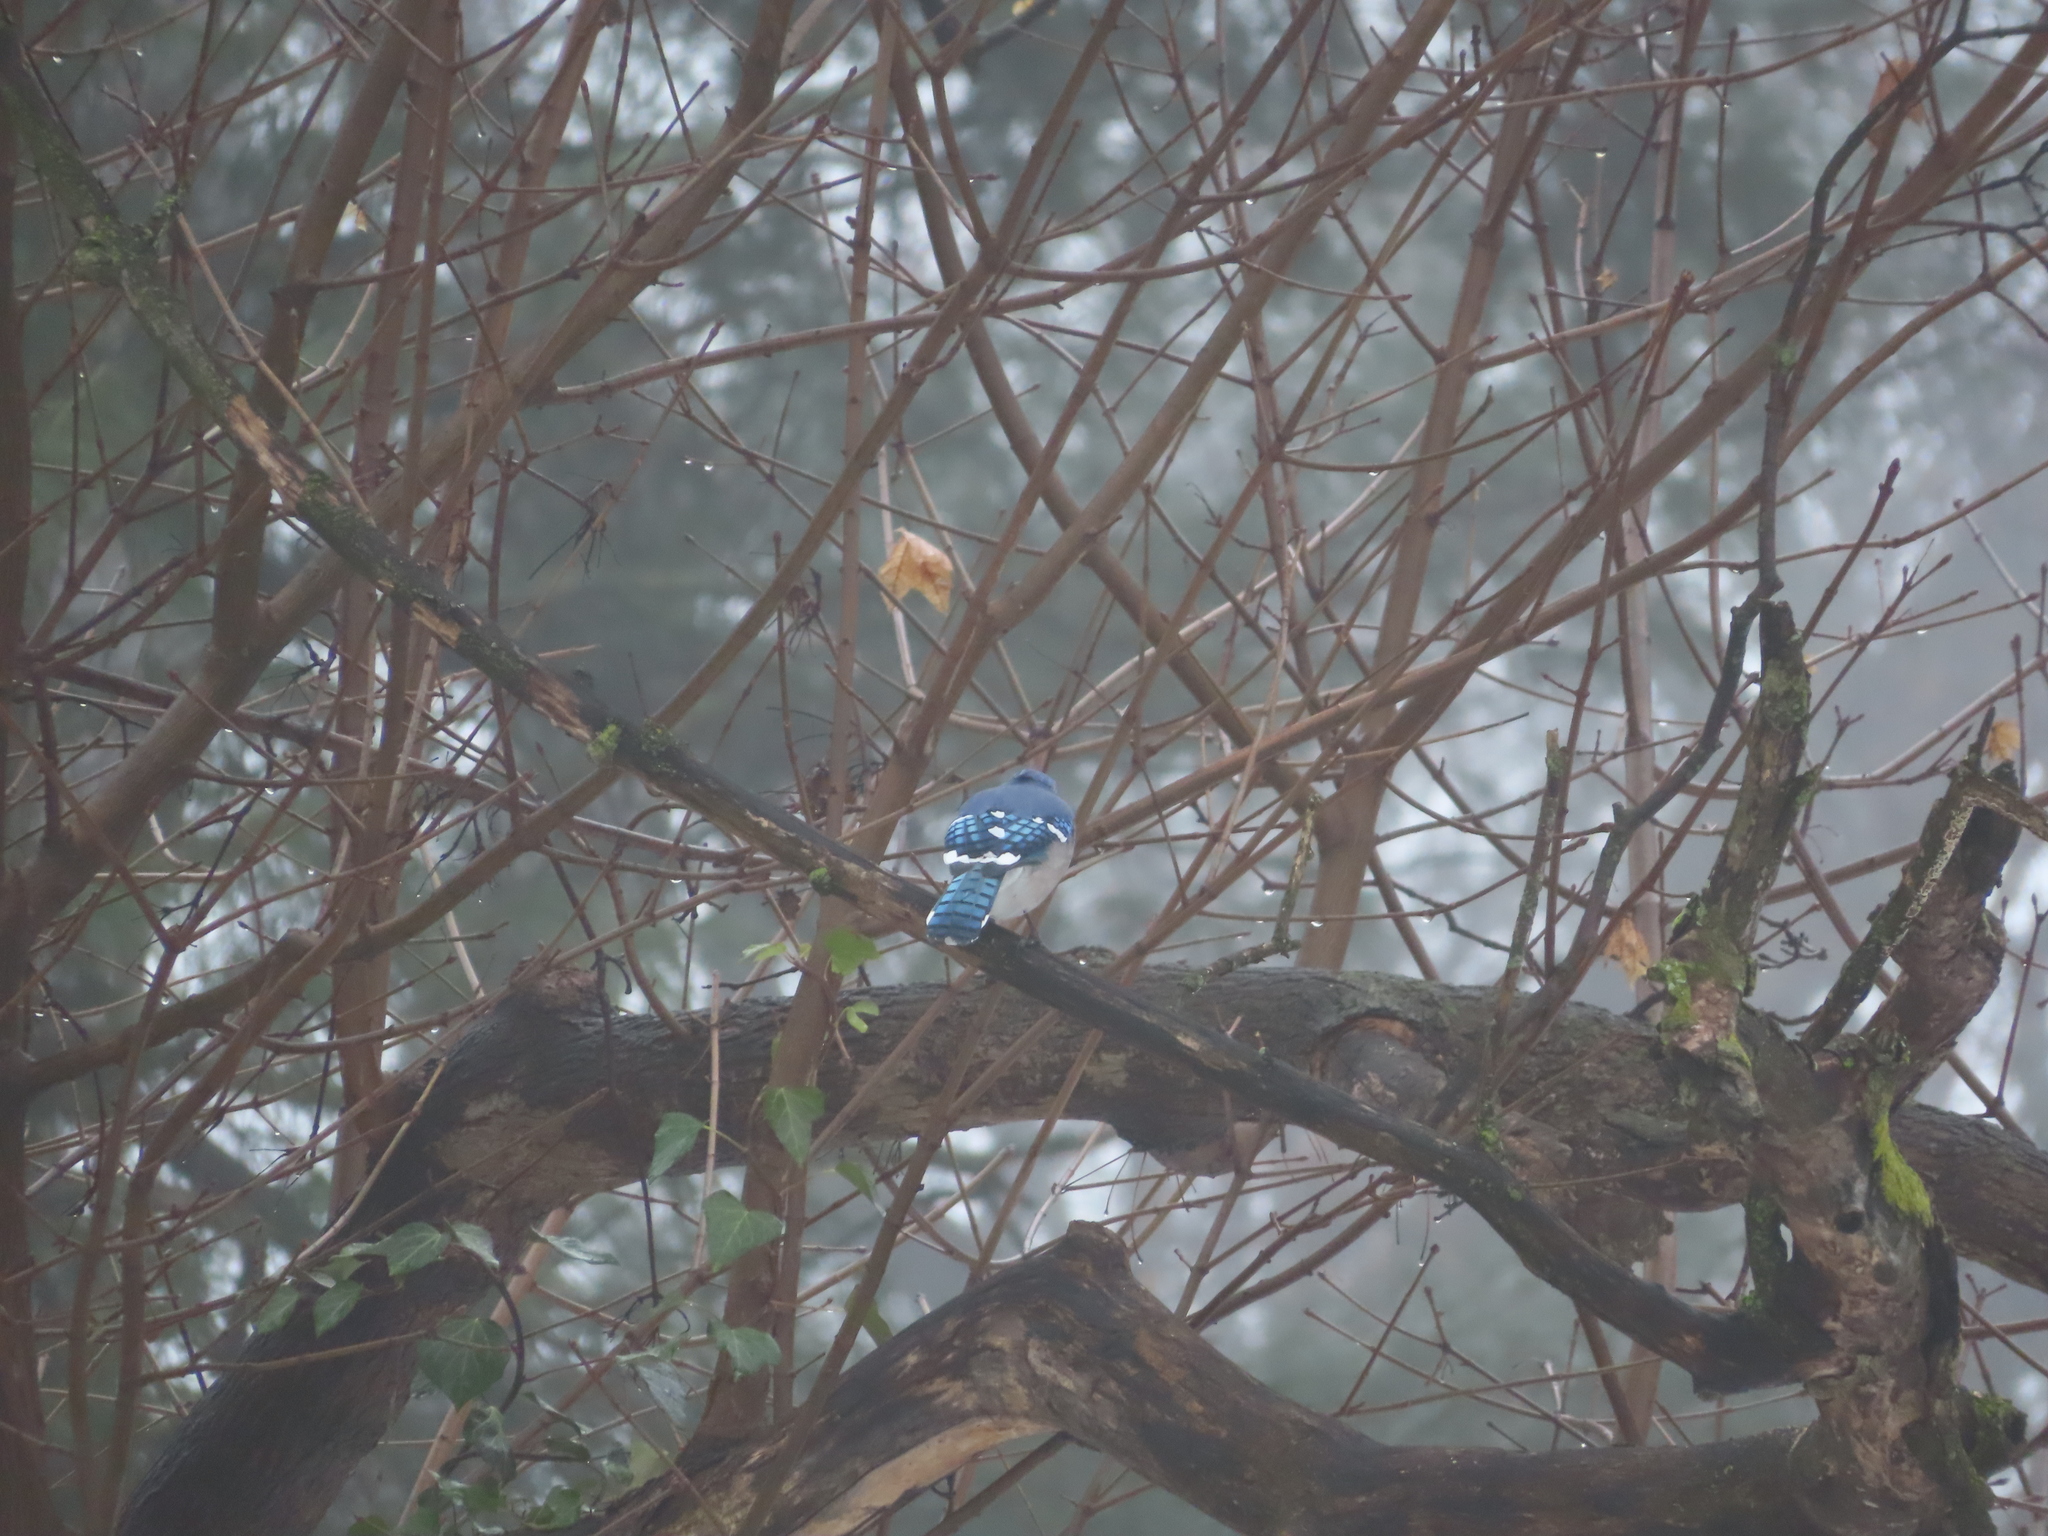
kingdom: Animalia
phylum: Chordata
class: Aves
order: Passeriformes
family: Corvidae
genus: Cyanocitta
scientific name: Cyanocitta cristata
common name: Blue jay
